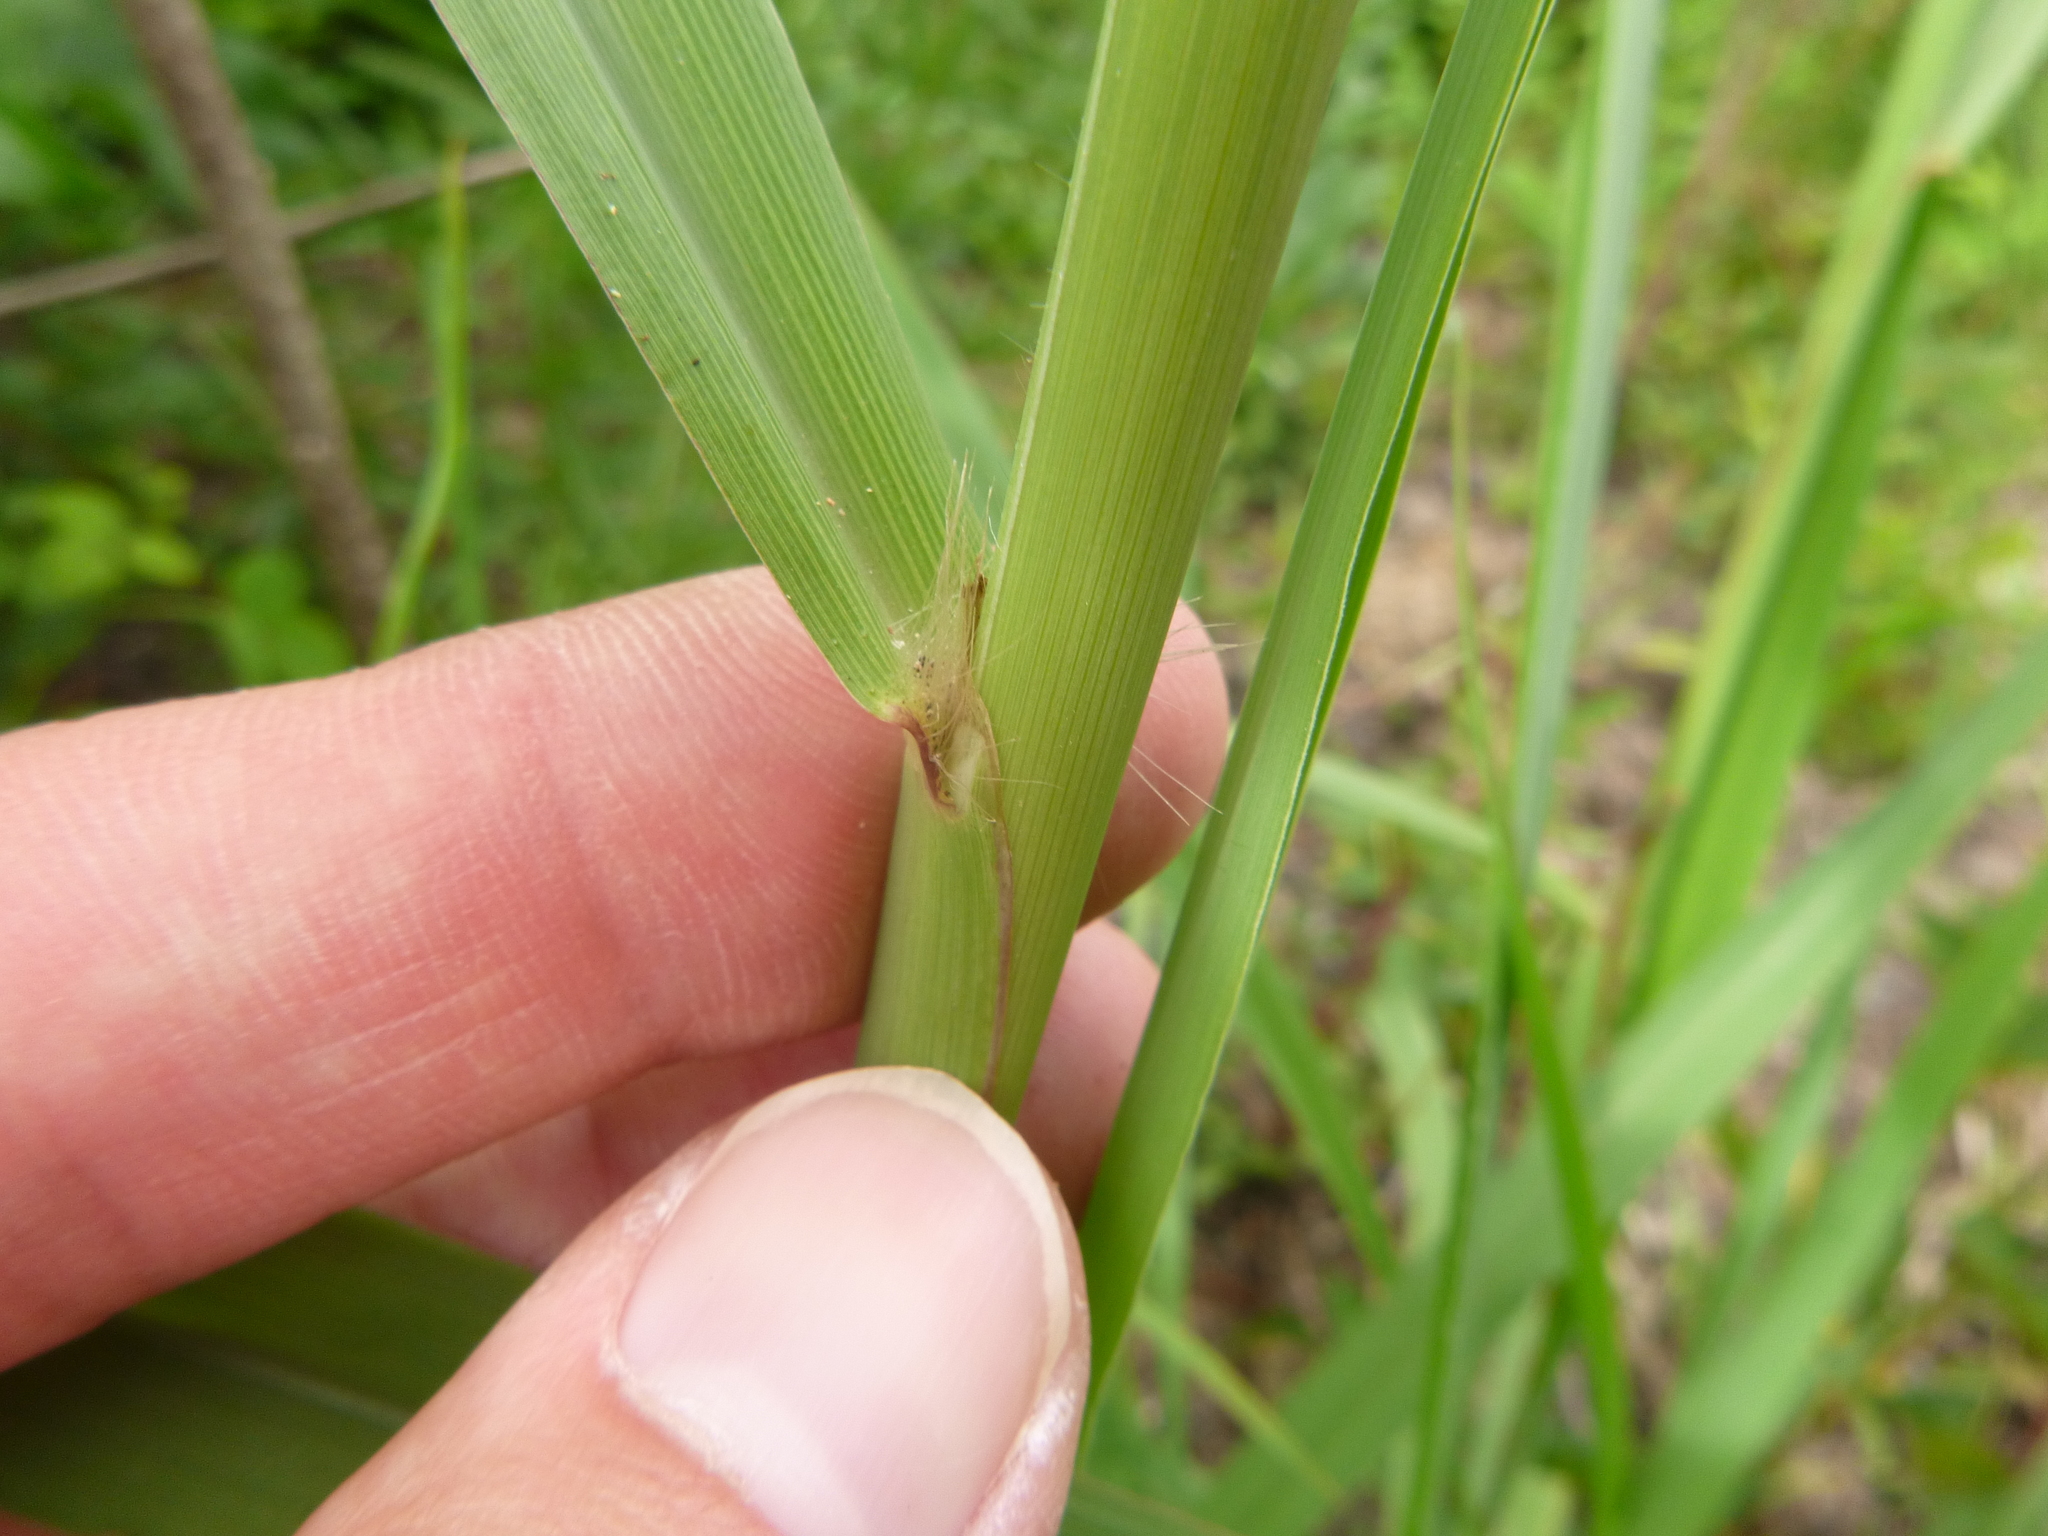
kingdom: Plantae
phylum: Tracheophyta
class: Liliopsida
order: Poales
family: Poaceae
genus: Paspalum
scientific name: Paspalum urvillei
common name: Vasey's grass
